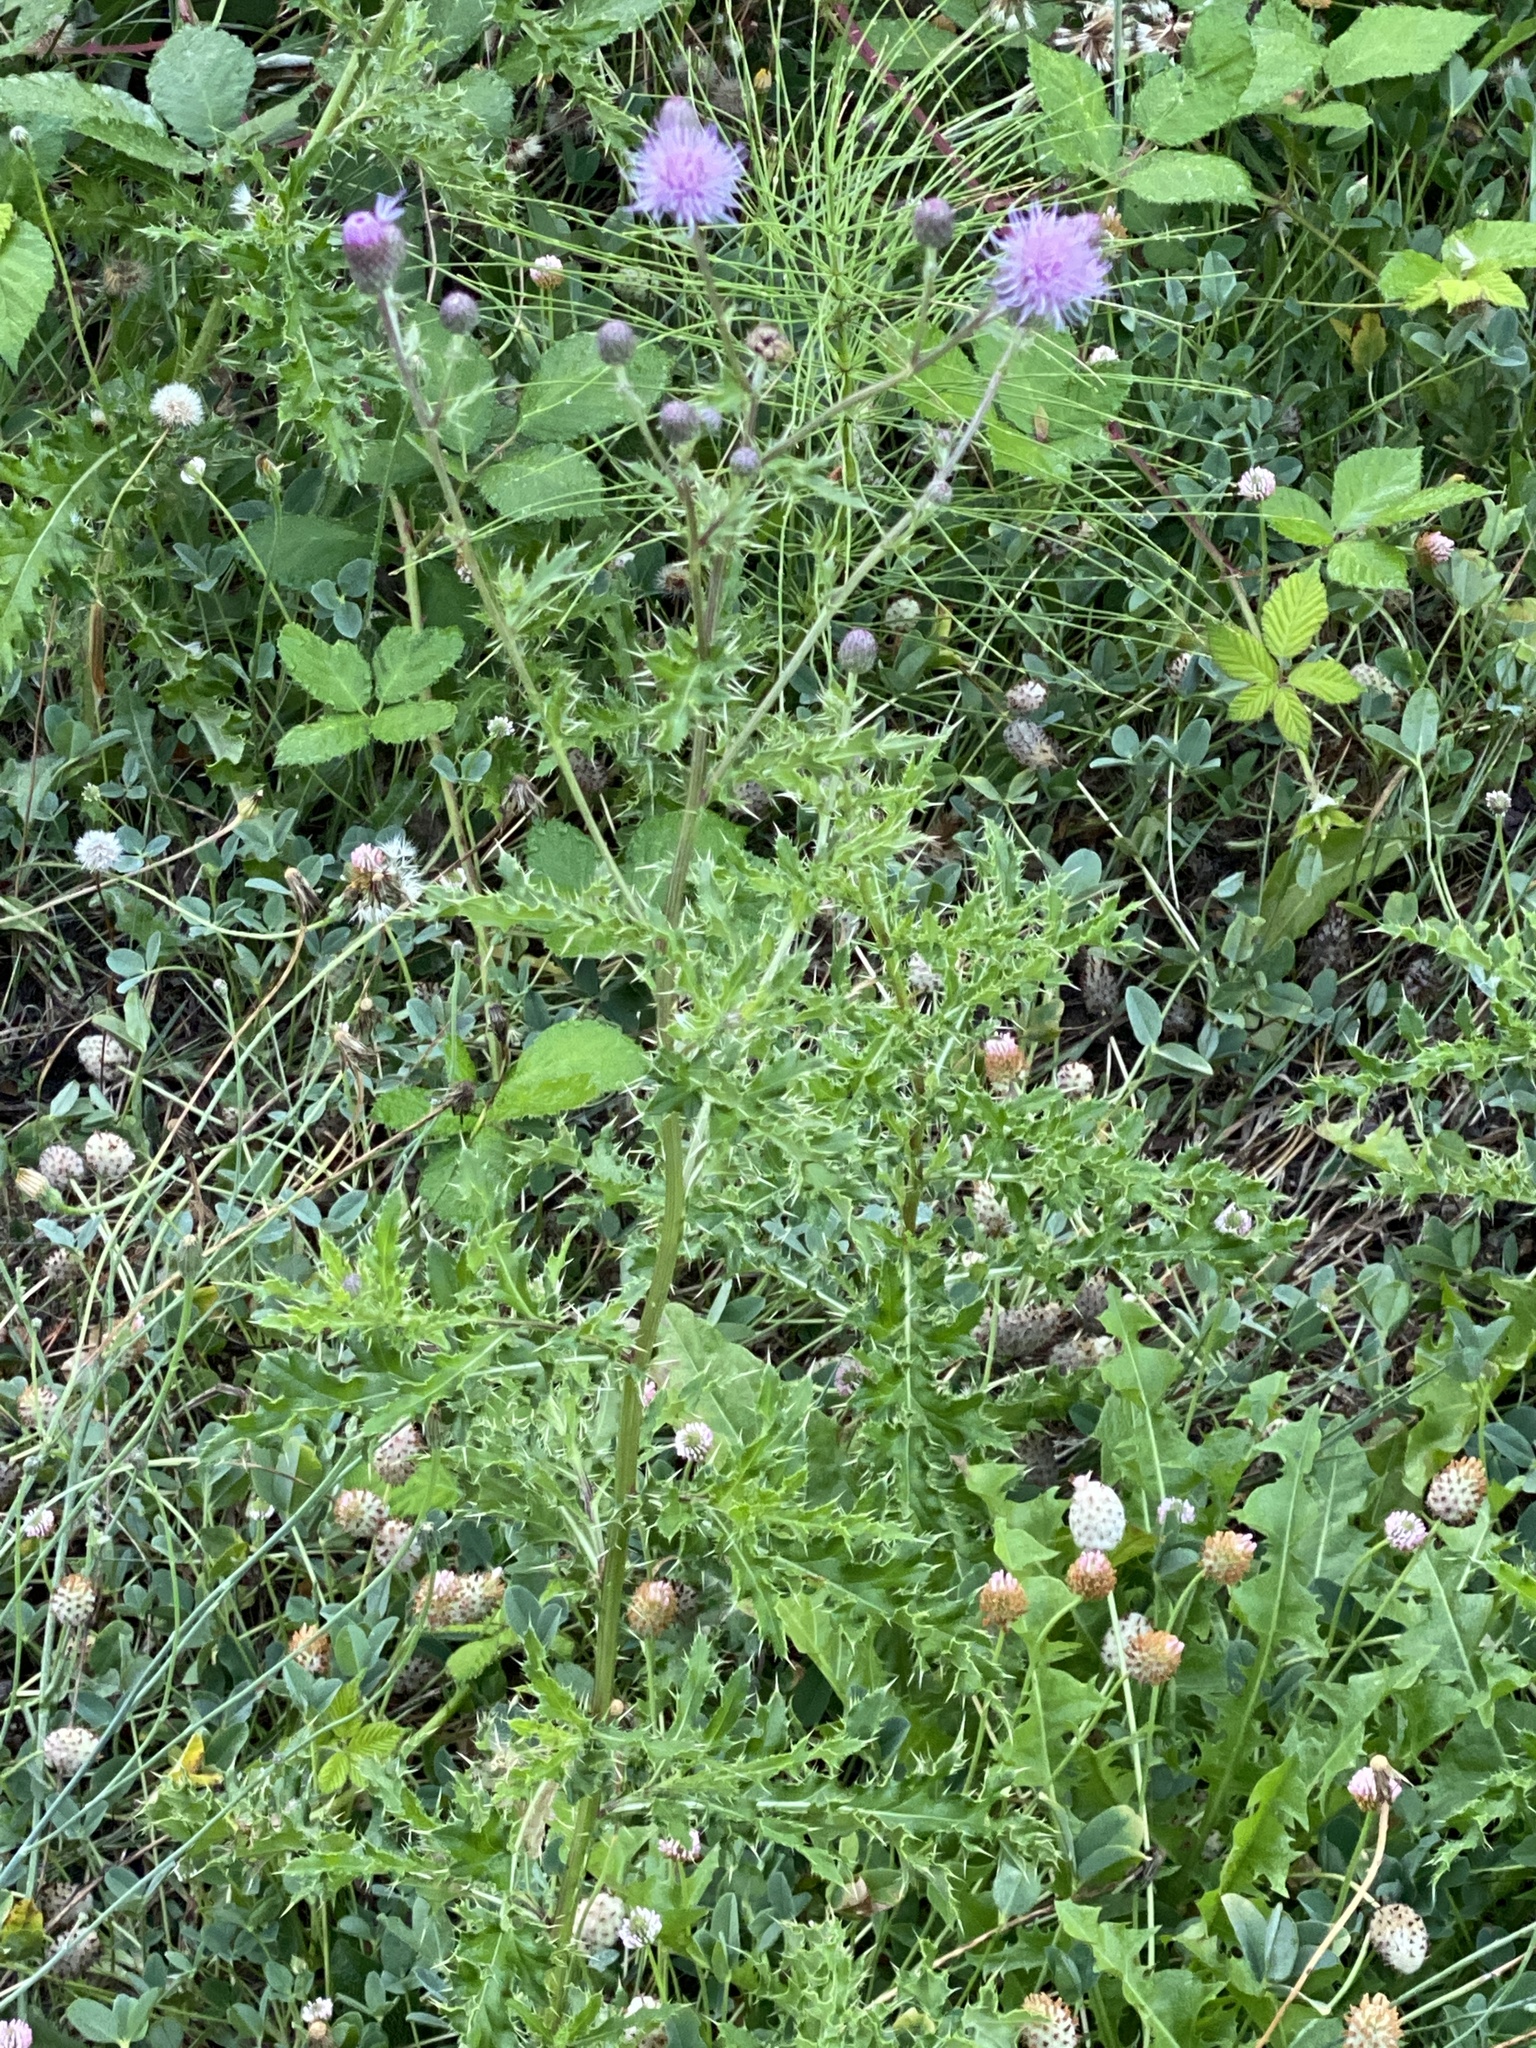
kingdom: Plantae
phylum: Tracheophyta
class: Magnoliopsida
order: Asterales
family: Asteraceae
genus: Cirsium
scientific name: Cirsium arvense
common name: Creeping thistle
